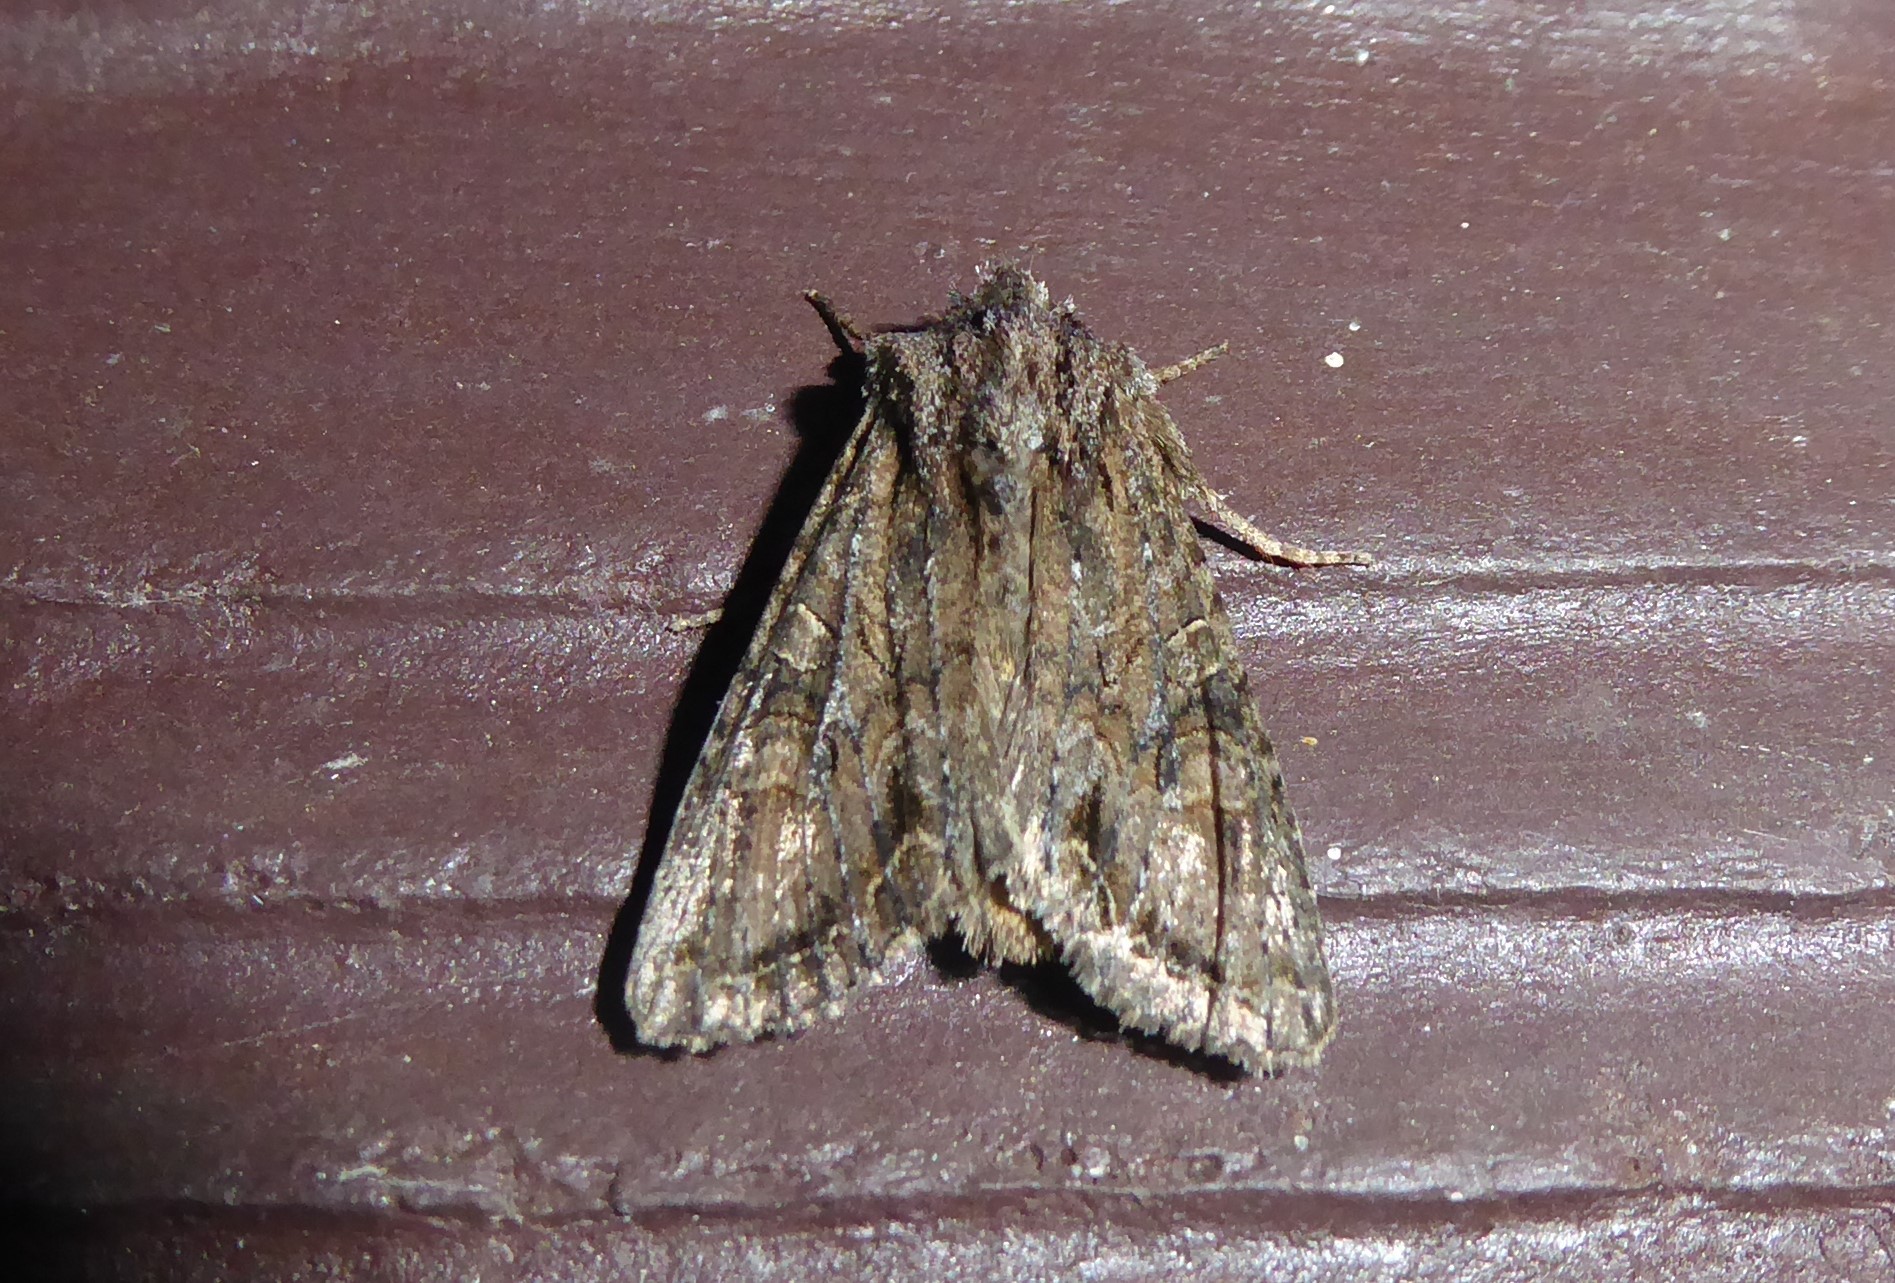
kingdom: Animalia
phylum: Arthropoda
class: Insecta
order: Lepidoptera
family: Noctuidae
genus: Ichneutica
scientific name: Ichneutica mutans
